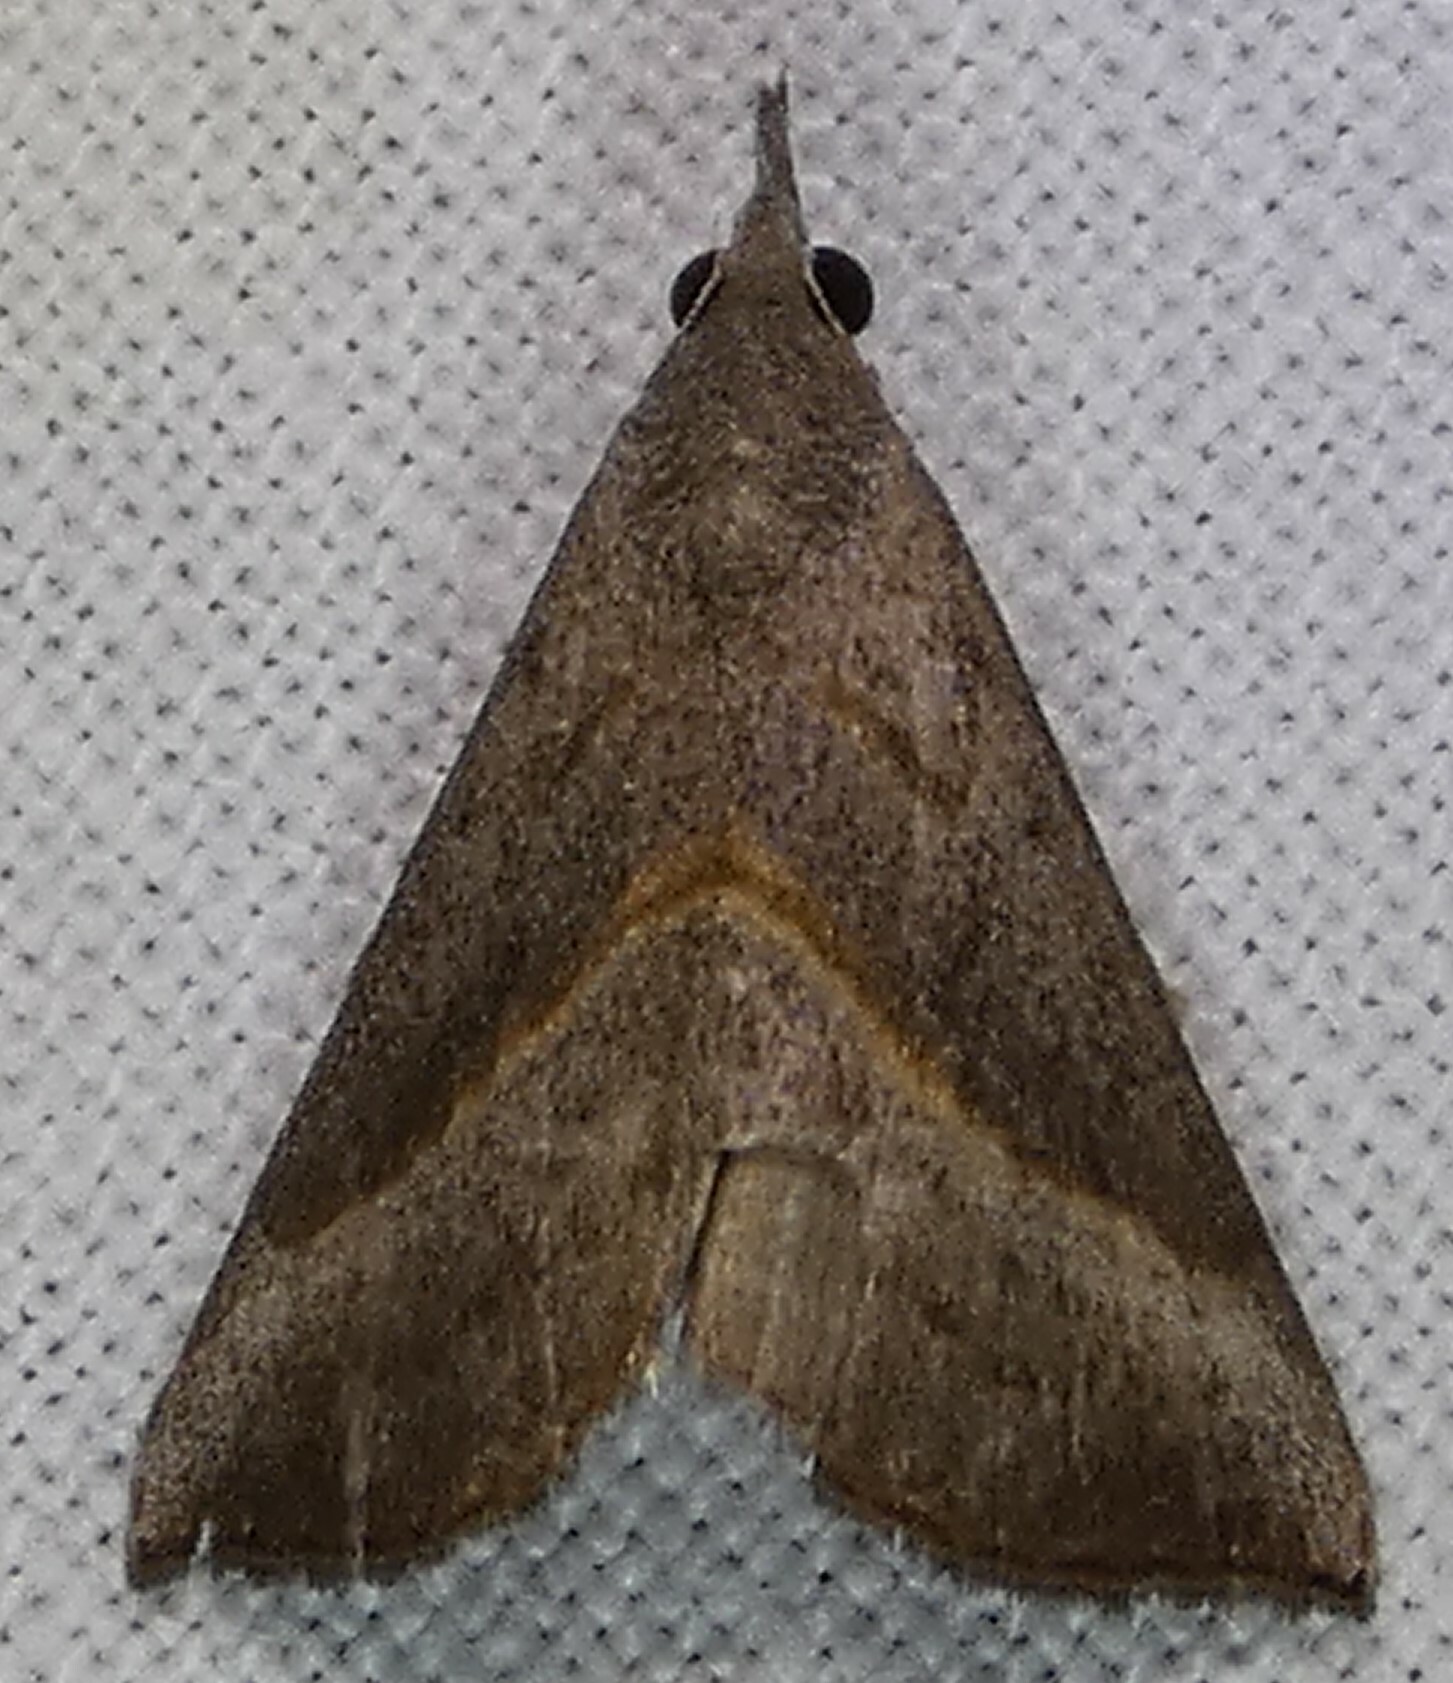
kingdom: Animalia
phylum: Arthropoda
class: Insecta
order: Lepidoptera
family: Erebidae
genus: Hypena
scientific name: Hypena degesalis
